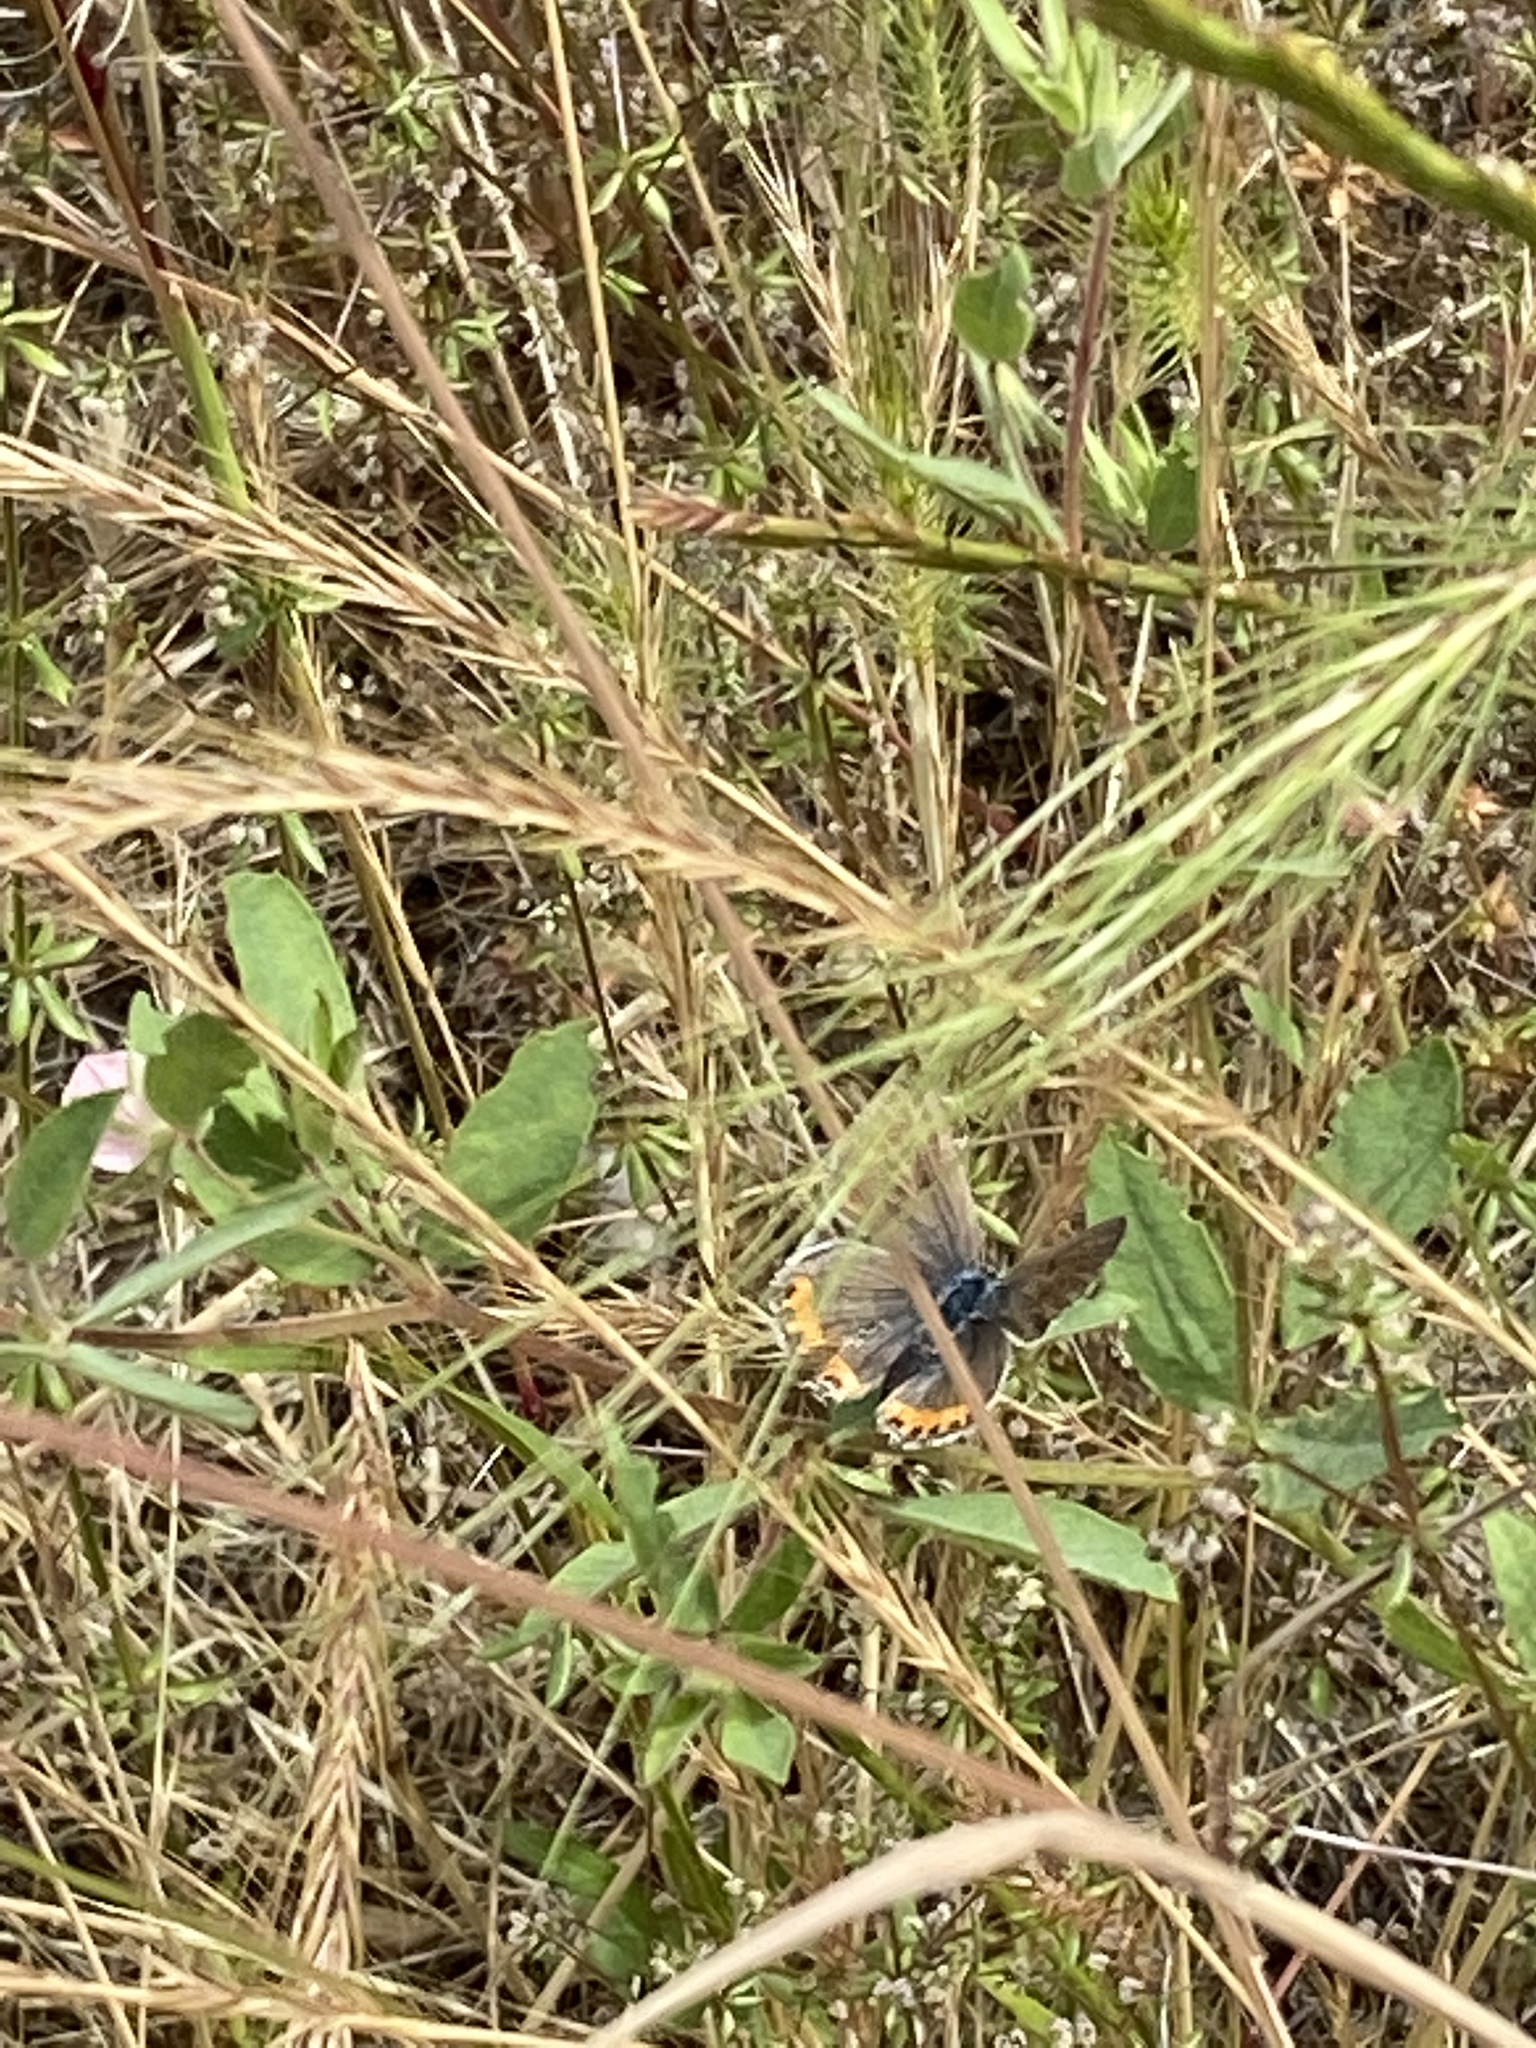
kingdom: Animalia
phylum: Arthropoda
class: Insecta
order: Lepidoptera
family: Lycaenidae
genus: Icaricia
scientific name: Icaricia acmon
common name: Acmon blue
